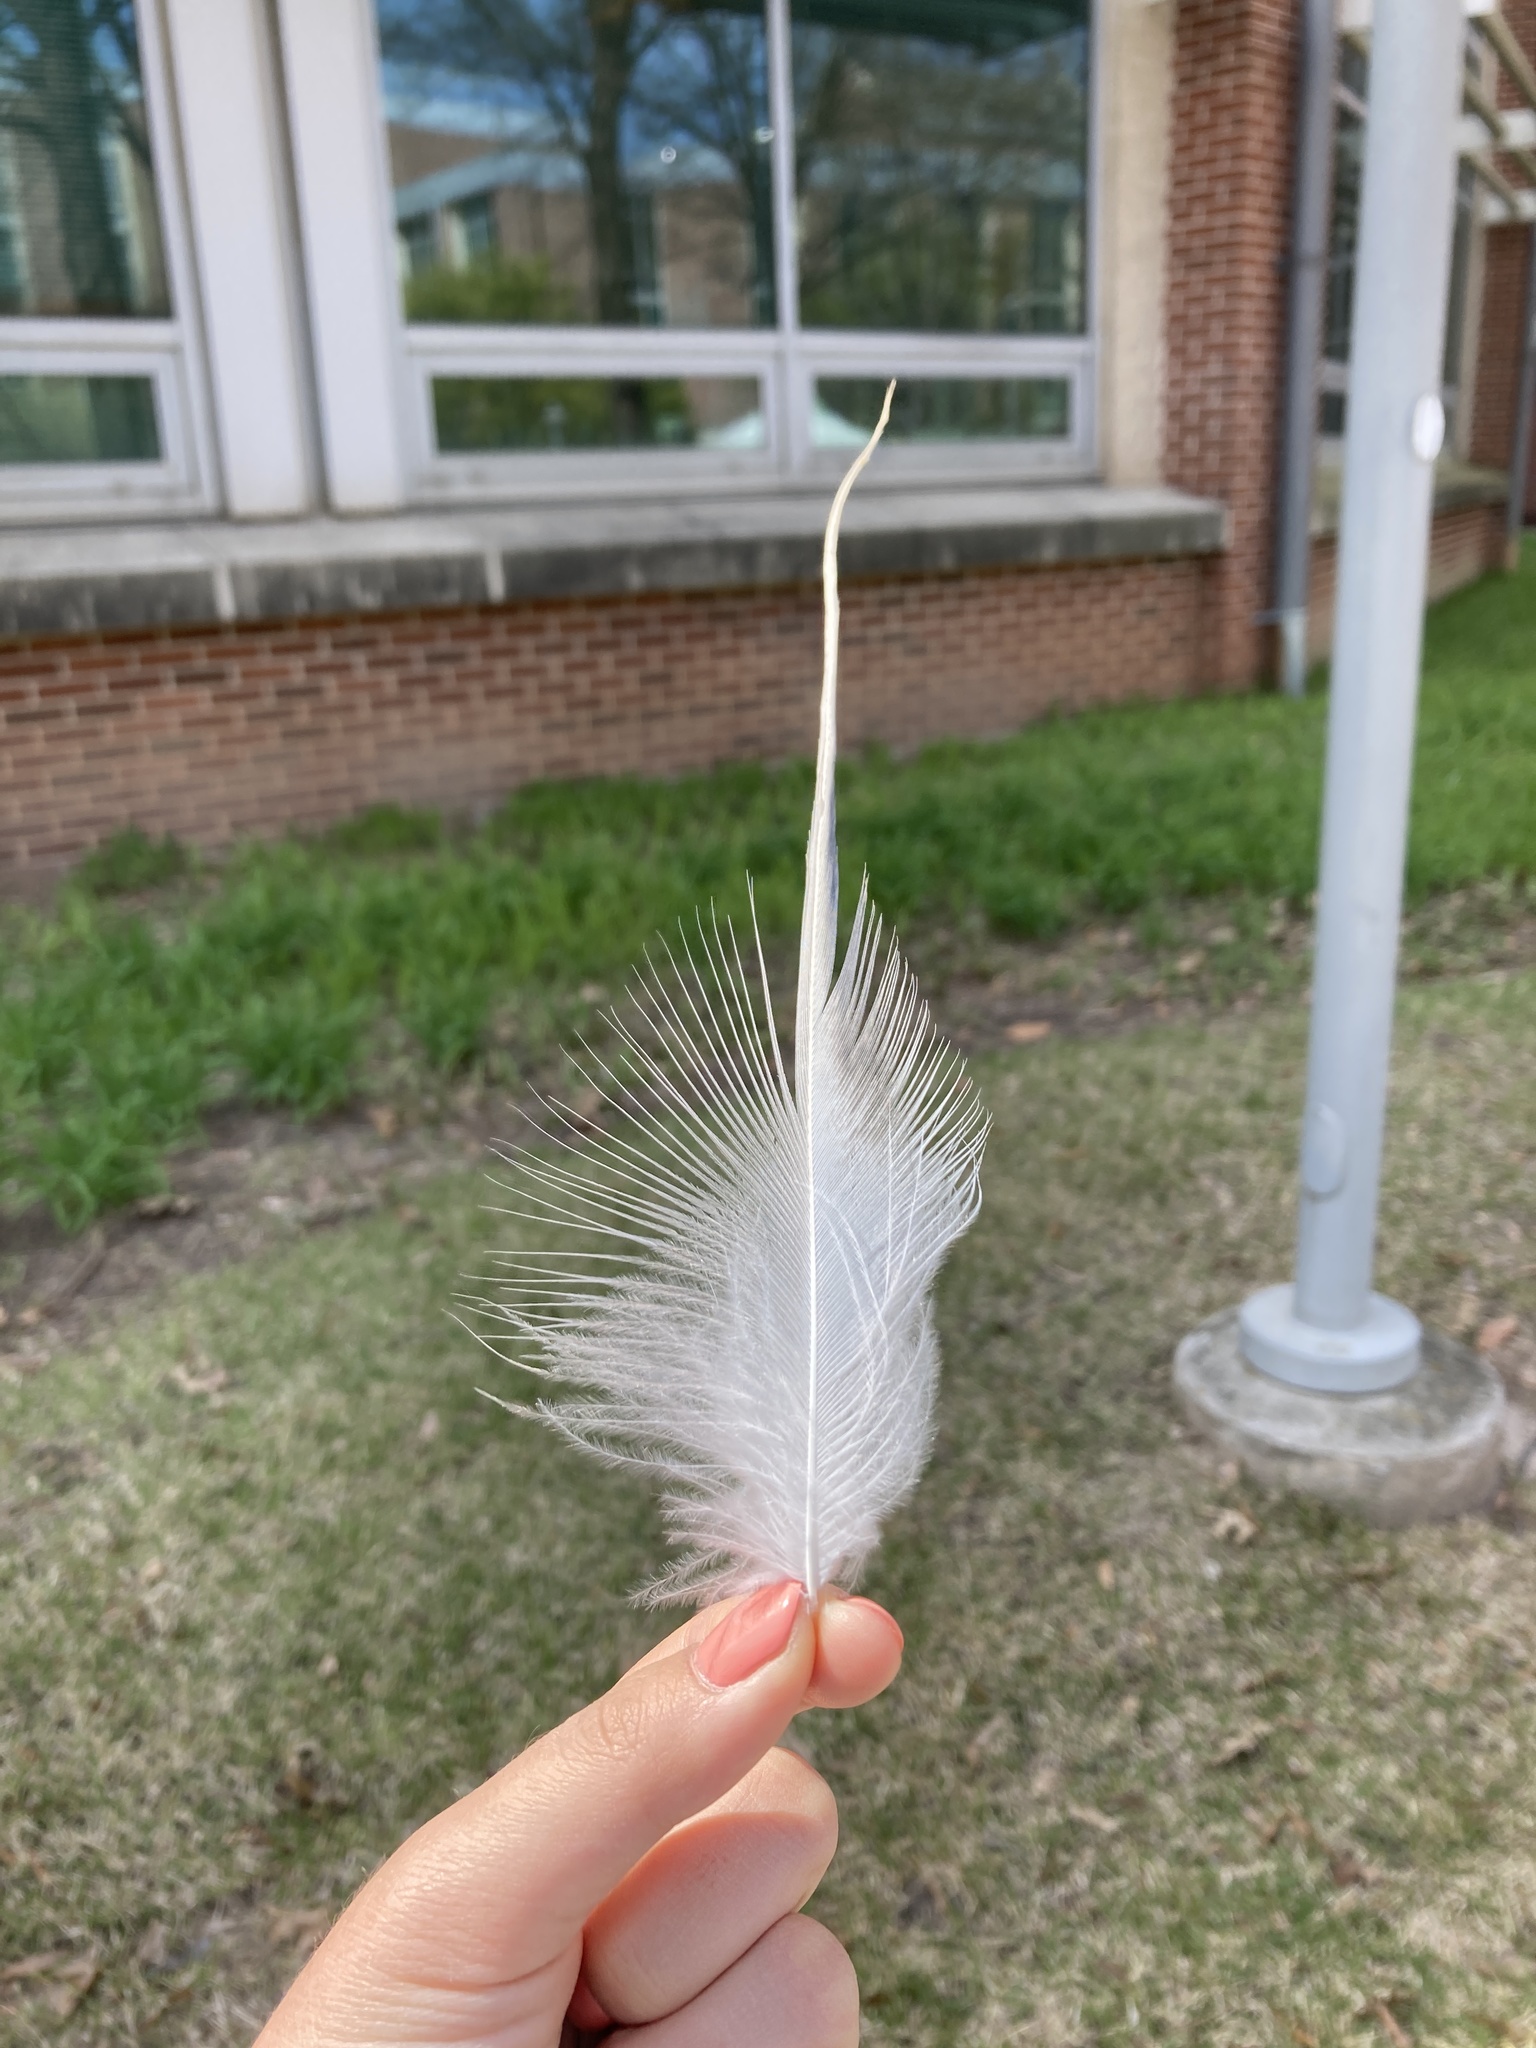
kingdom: Animalia
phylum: Chordata
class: Aves
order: Pelecaniformes
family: Ardeidae
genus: Ardea
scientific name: Ardea herodias
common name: Great blue heron
